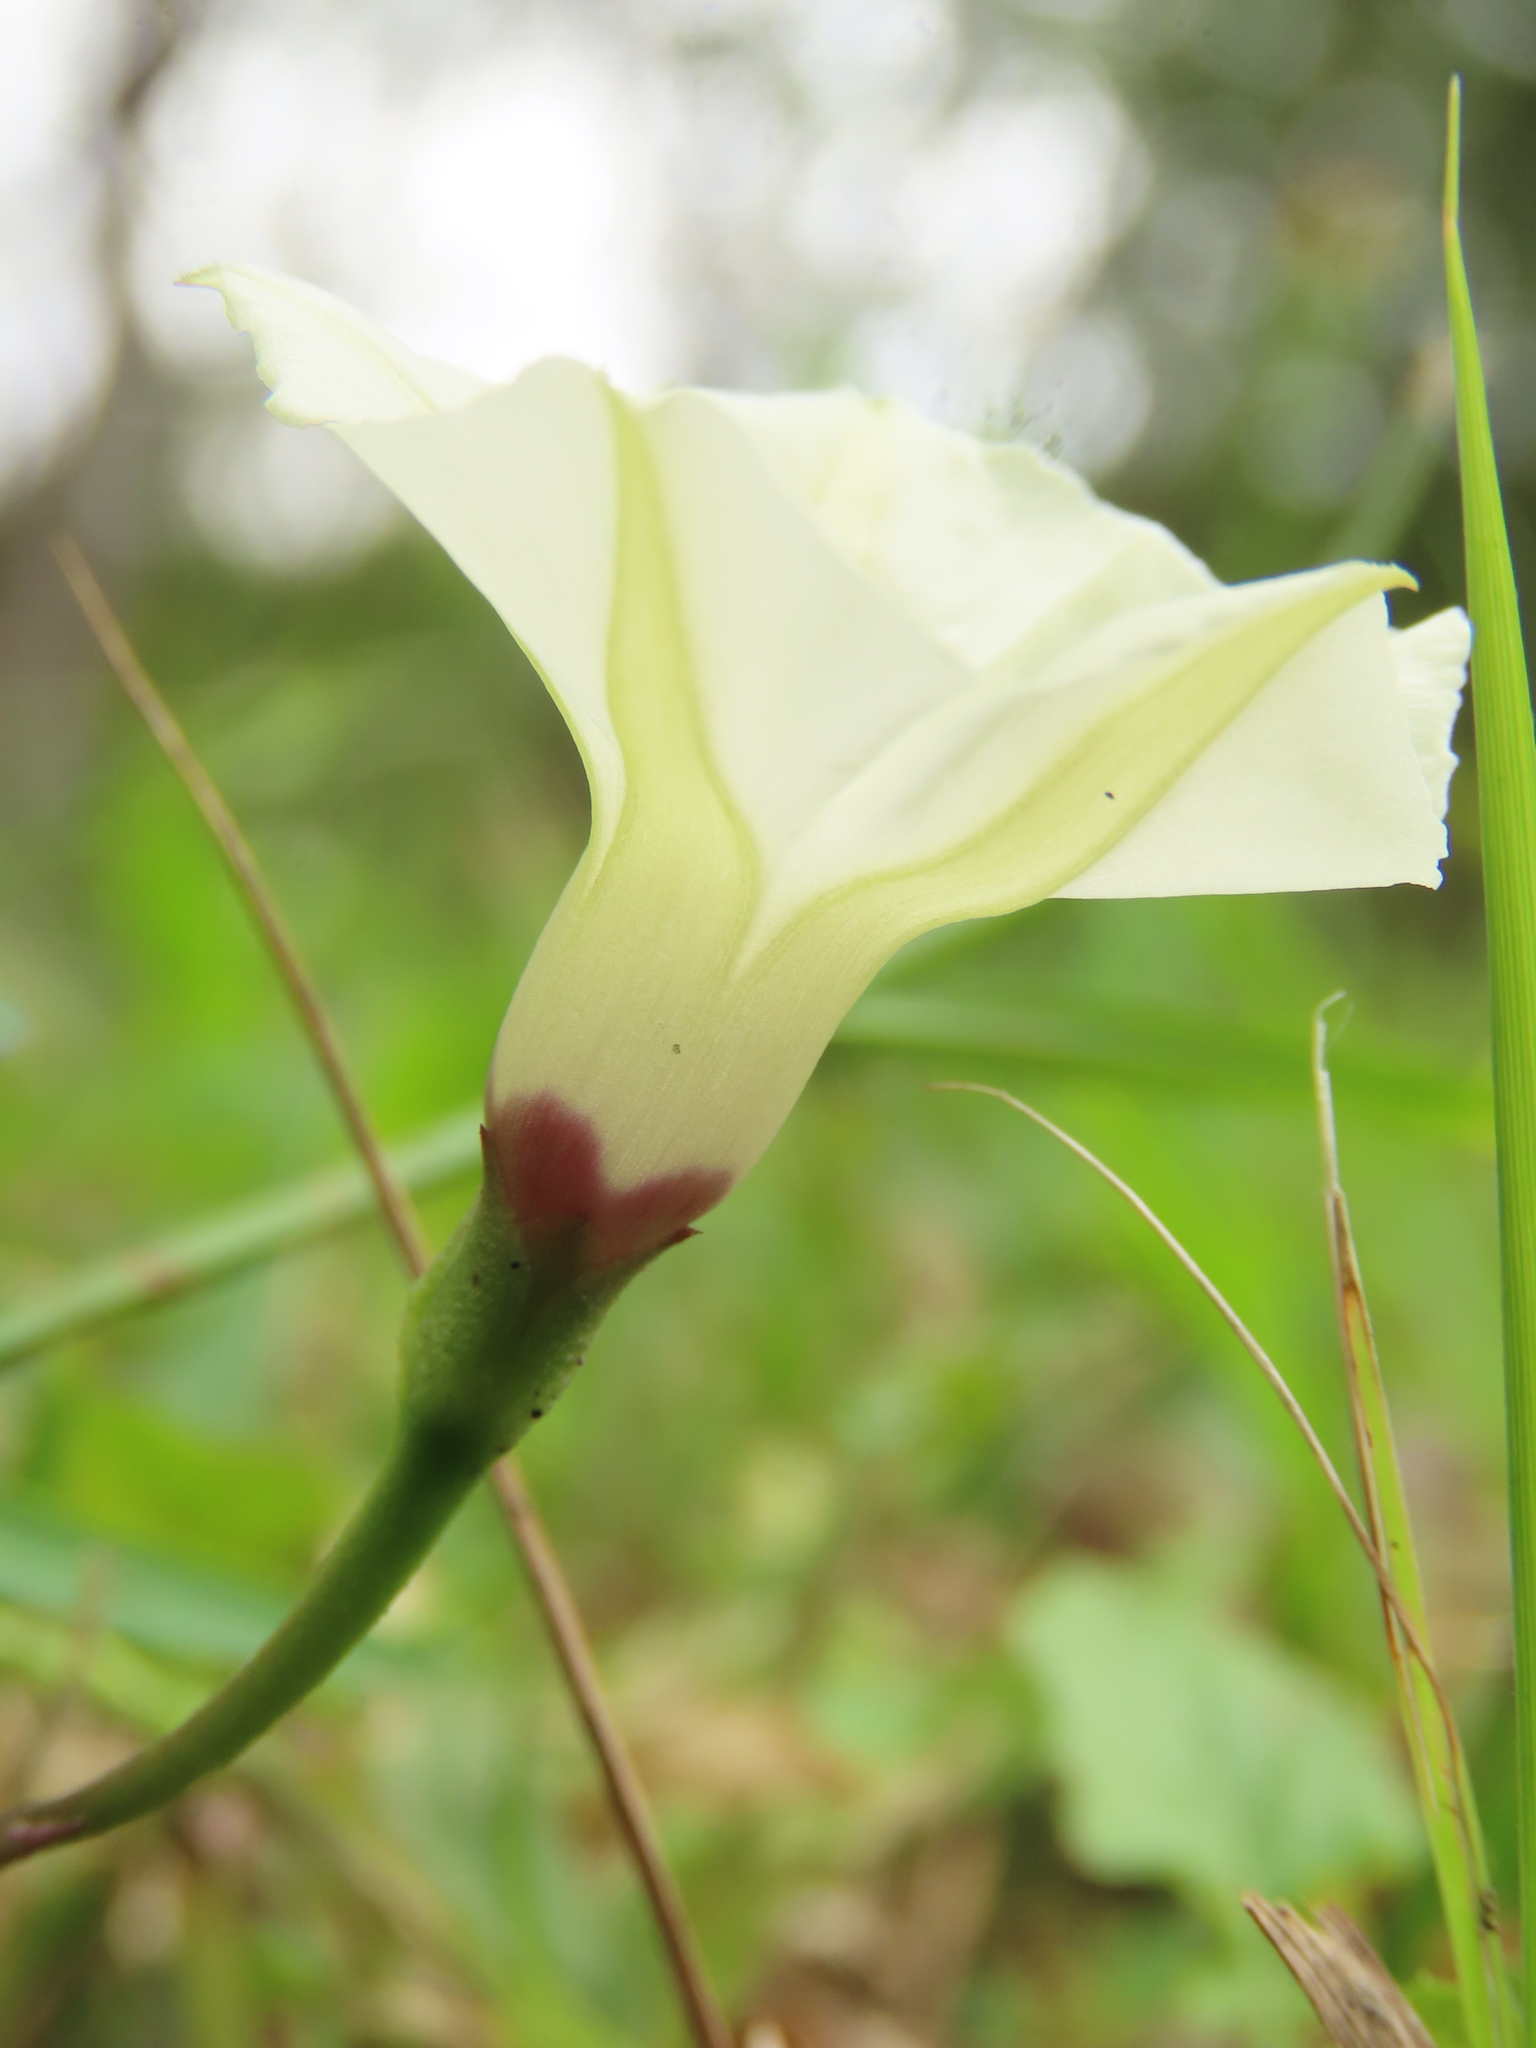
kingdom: Plantae
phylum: Tracheophyta
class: Magnoliopsida
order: Solanales
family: Convolvulaceae
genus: Ipomoea
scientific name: Ipomoea obscura
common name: Obscure morning-glory
